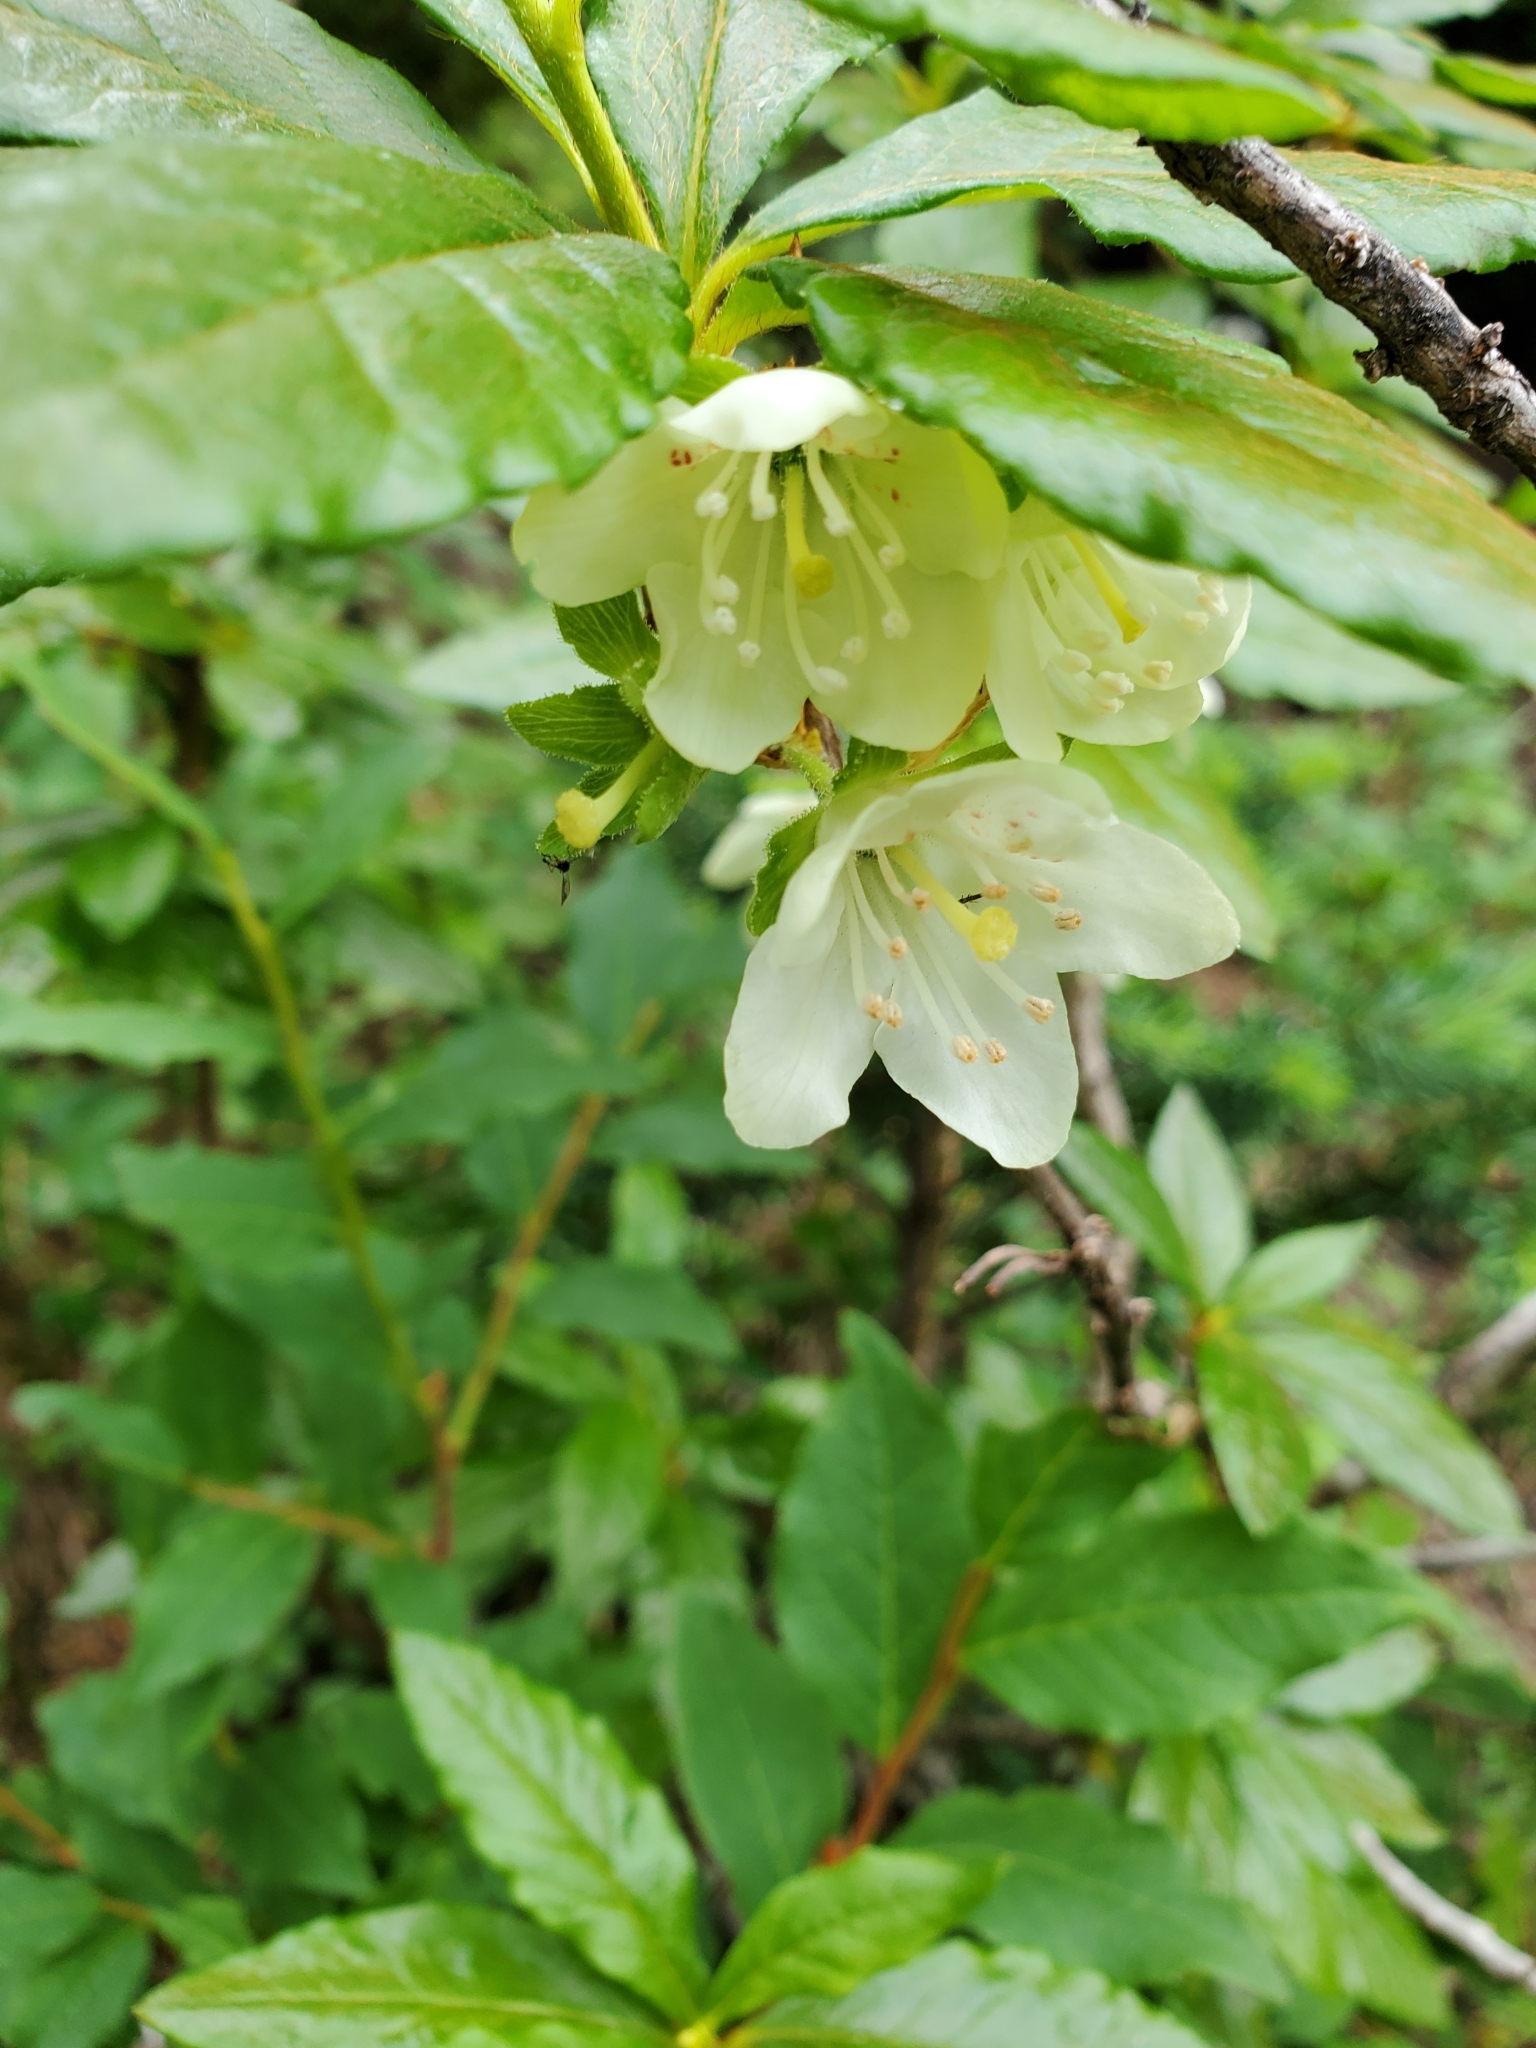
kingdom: Plantae
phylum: Tracheophyta
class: Magnoliopsida
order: Ericales
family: Ericaceae
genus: Rhododendron
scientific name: Rhododendron albiflorum
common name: White rhododendron
